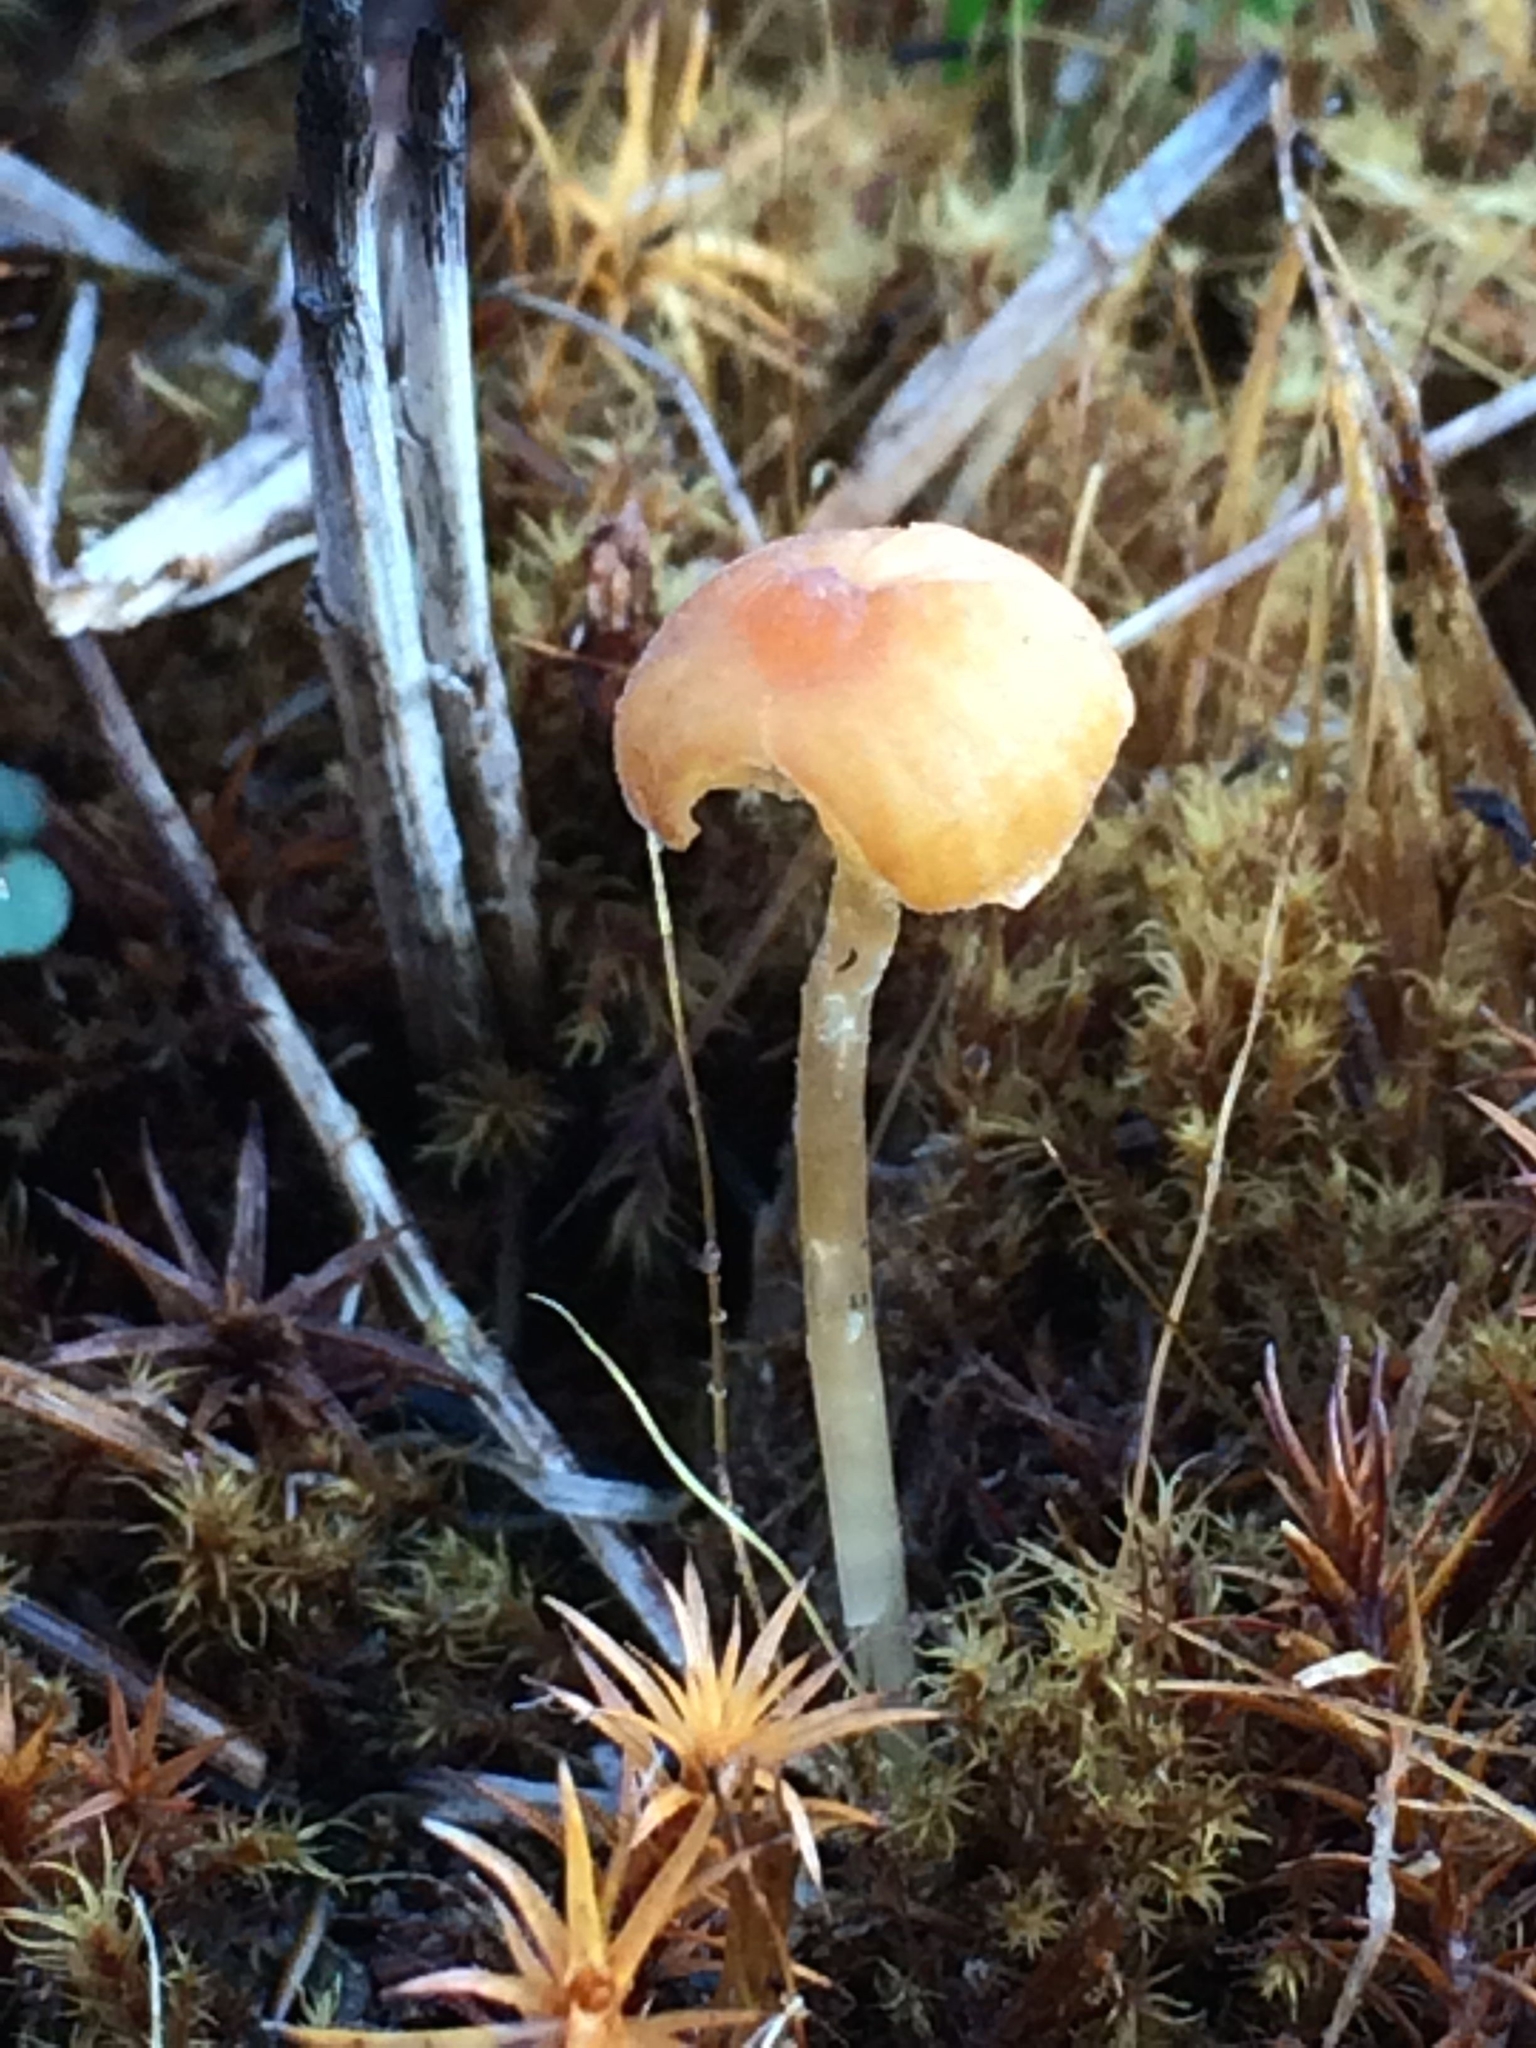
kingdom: Fungi
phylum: Basidiomycota
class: Agaricomycetes
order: Hymenochaetales
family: Rickenellaceae
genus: Rickenella
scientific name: Rickenella fibula
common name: Orange mosscap
